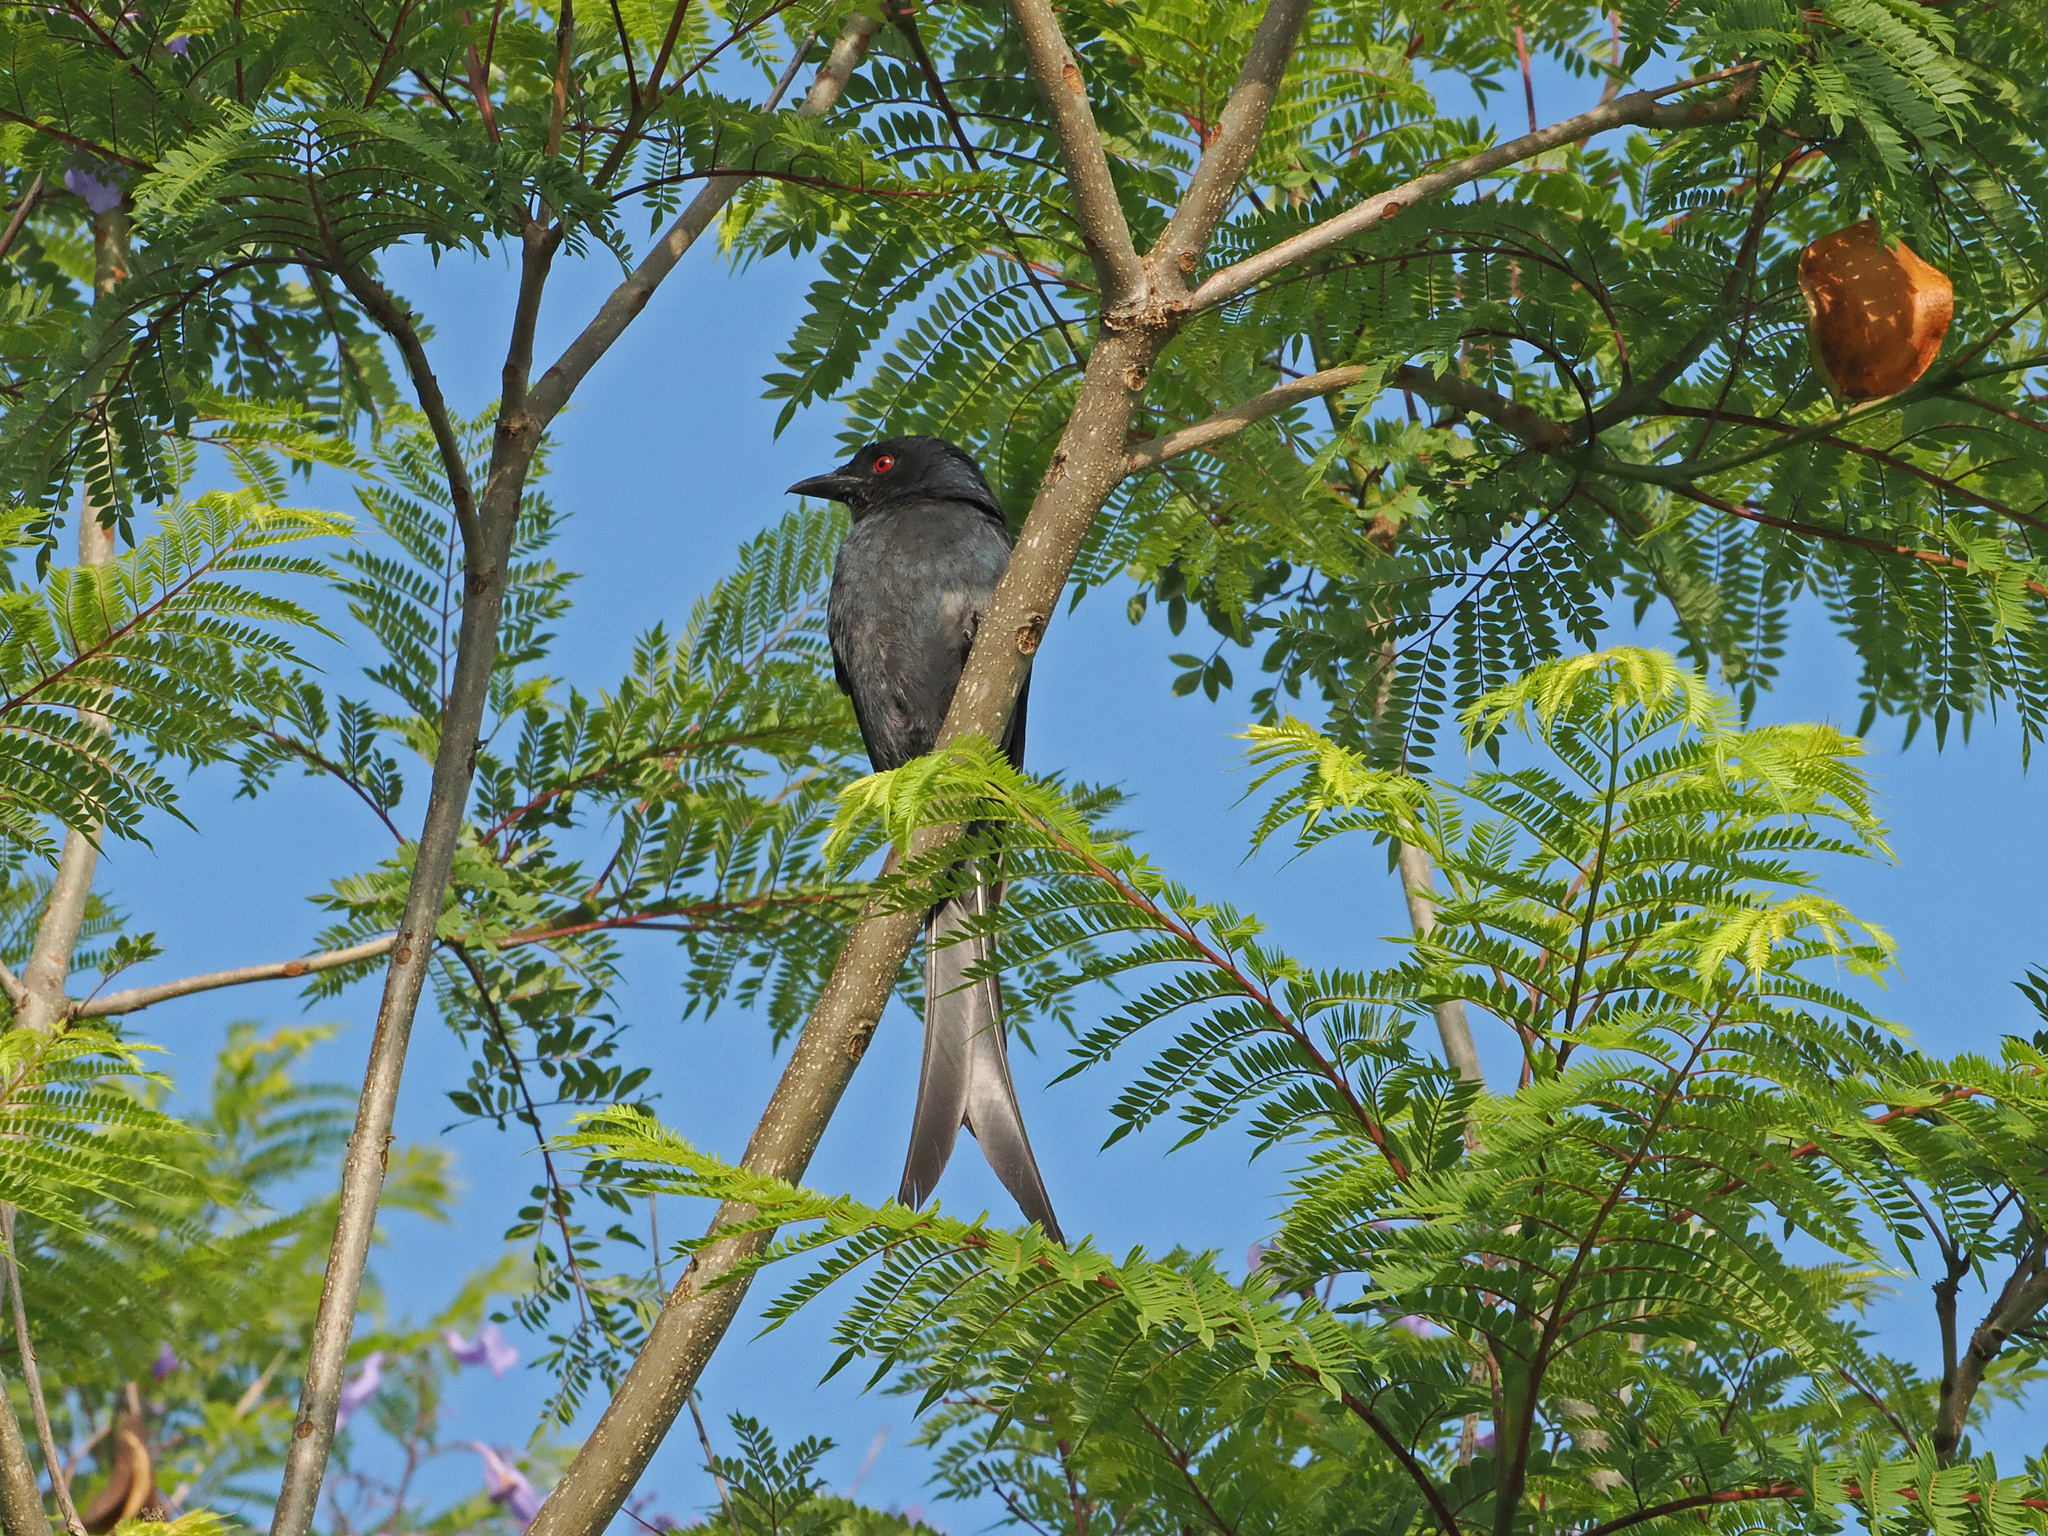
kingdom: Animalia
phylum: Chordata
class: Aves
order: Passeriformes
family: Dicruridae
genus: Dicrurus
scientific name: Dicrurus leucophaeus
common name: Ashy drongo
